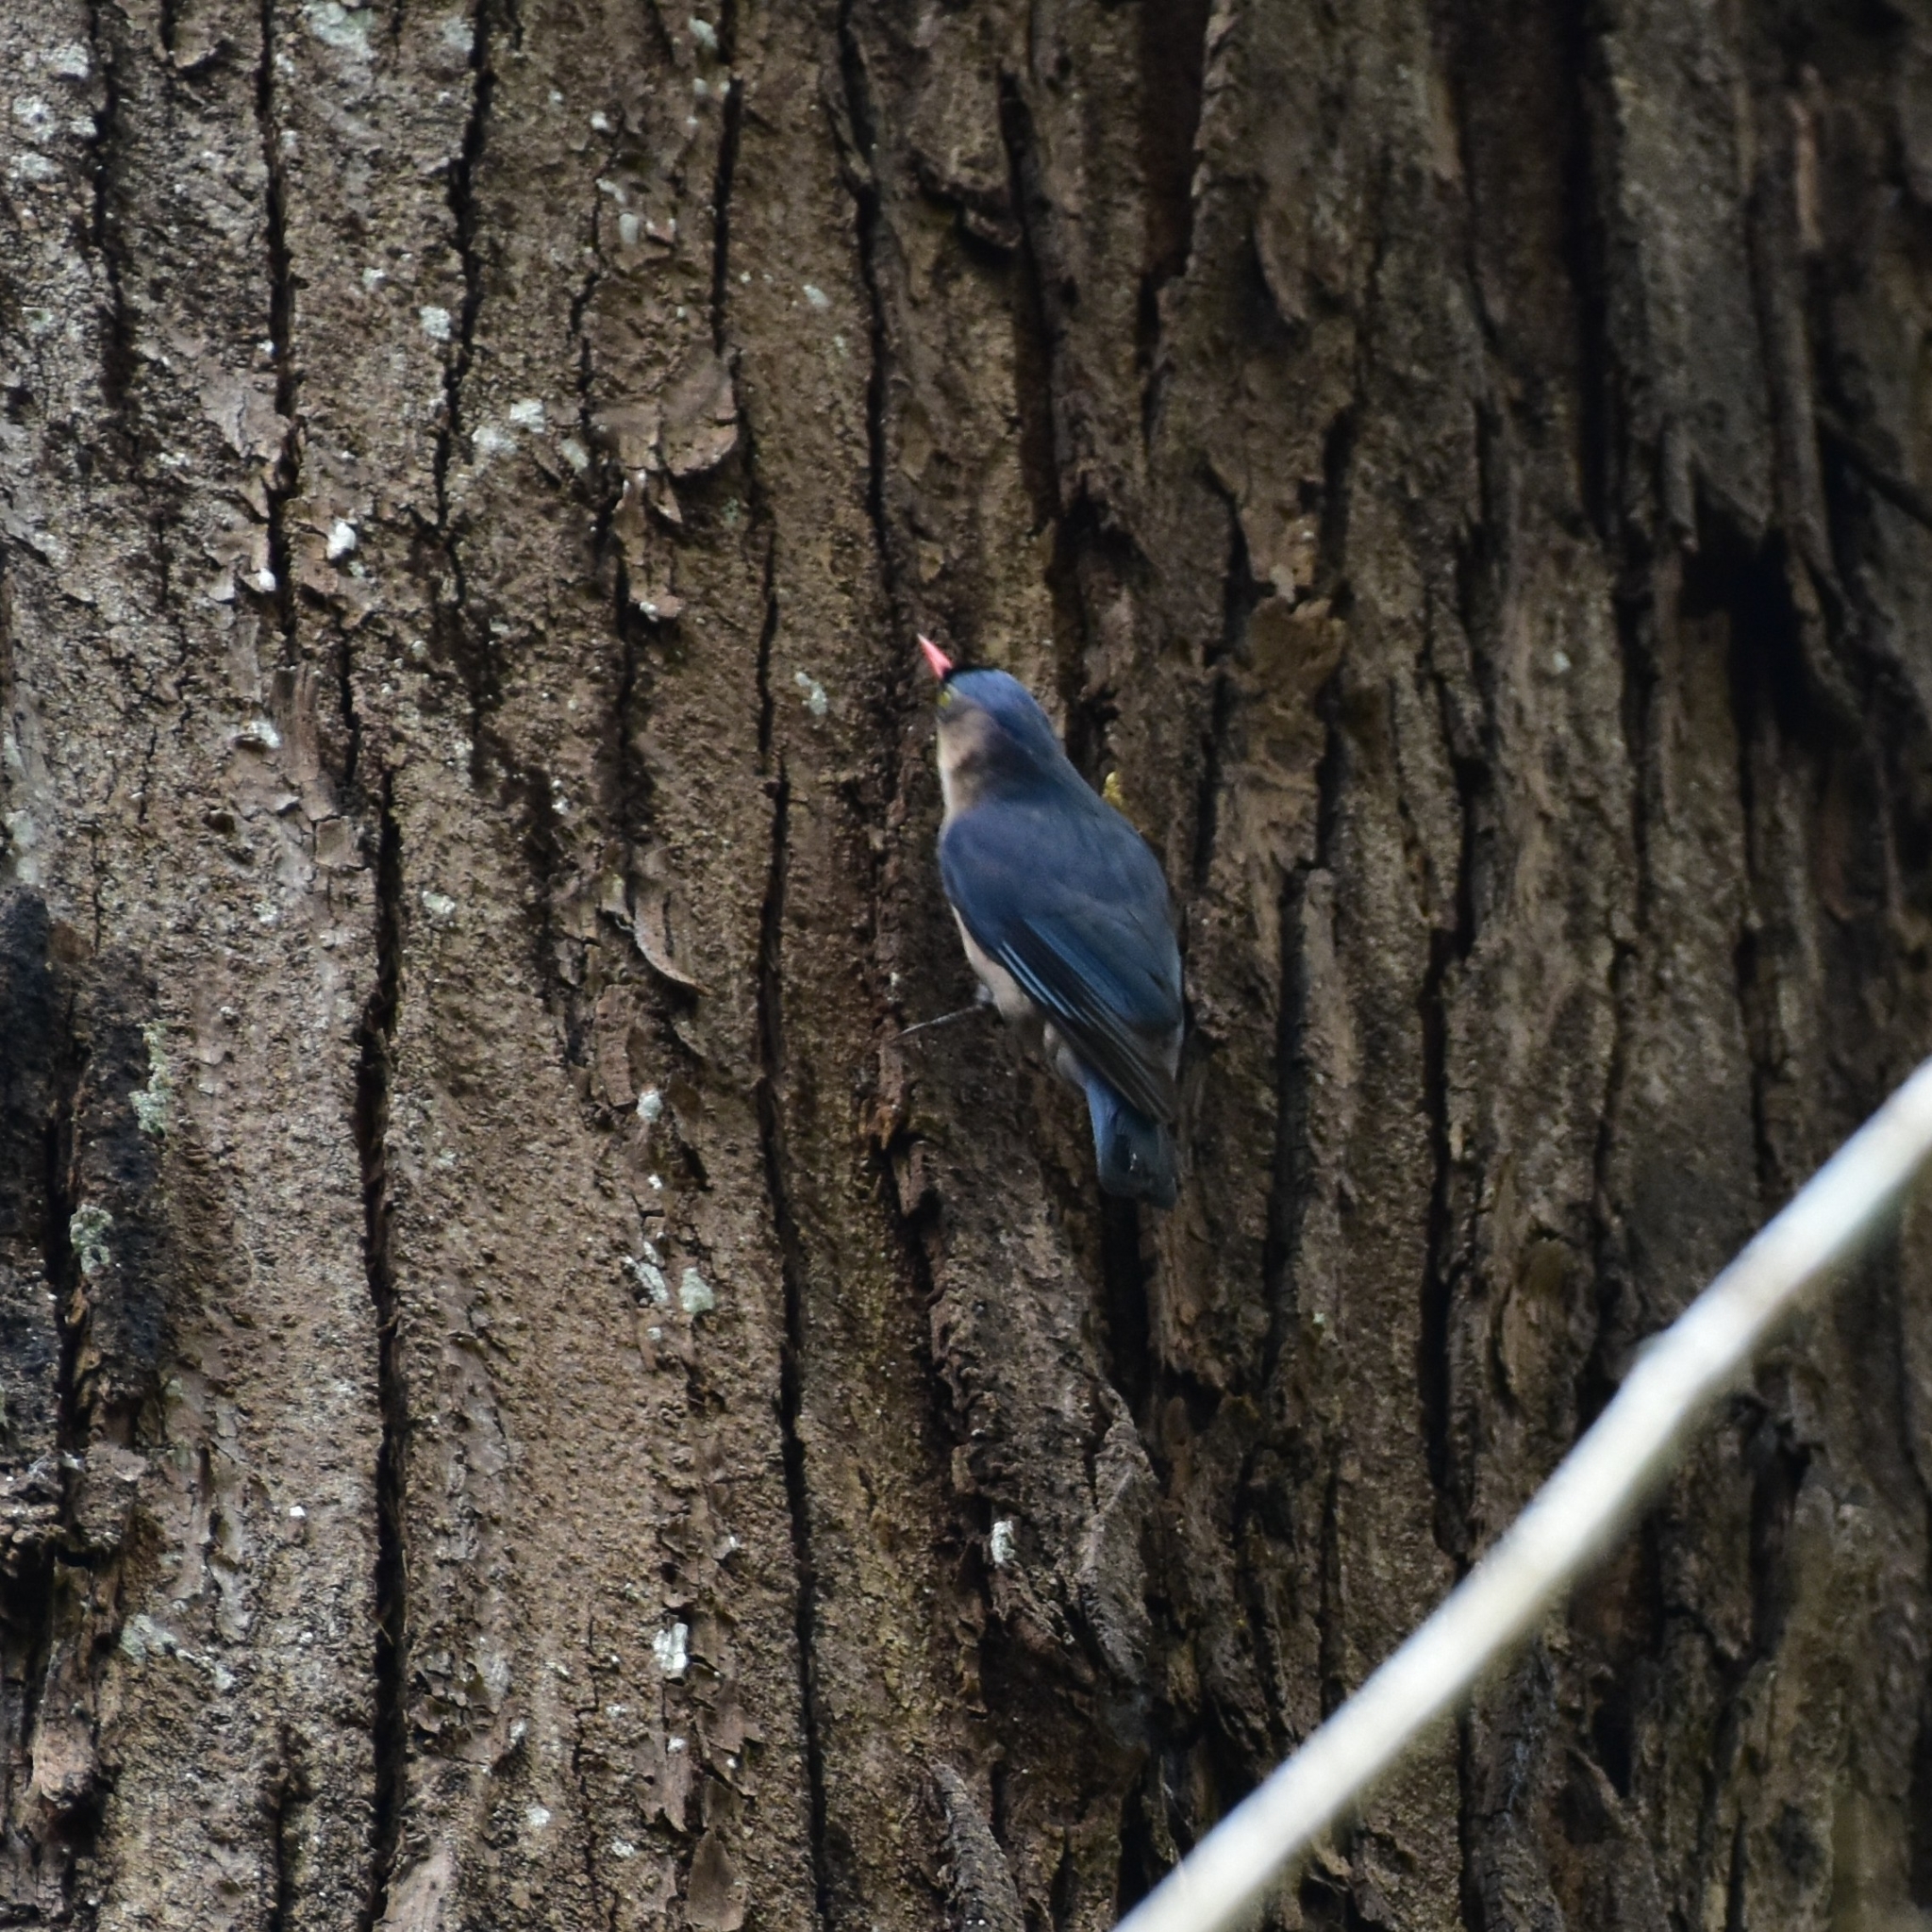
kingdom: Animalia
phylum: Chordata
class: Aves
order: Passeriformes
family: Sittidae
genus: Sitta
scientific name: Sitta frontalis
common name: Velvet-fronted nuthatch
